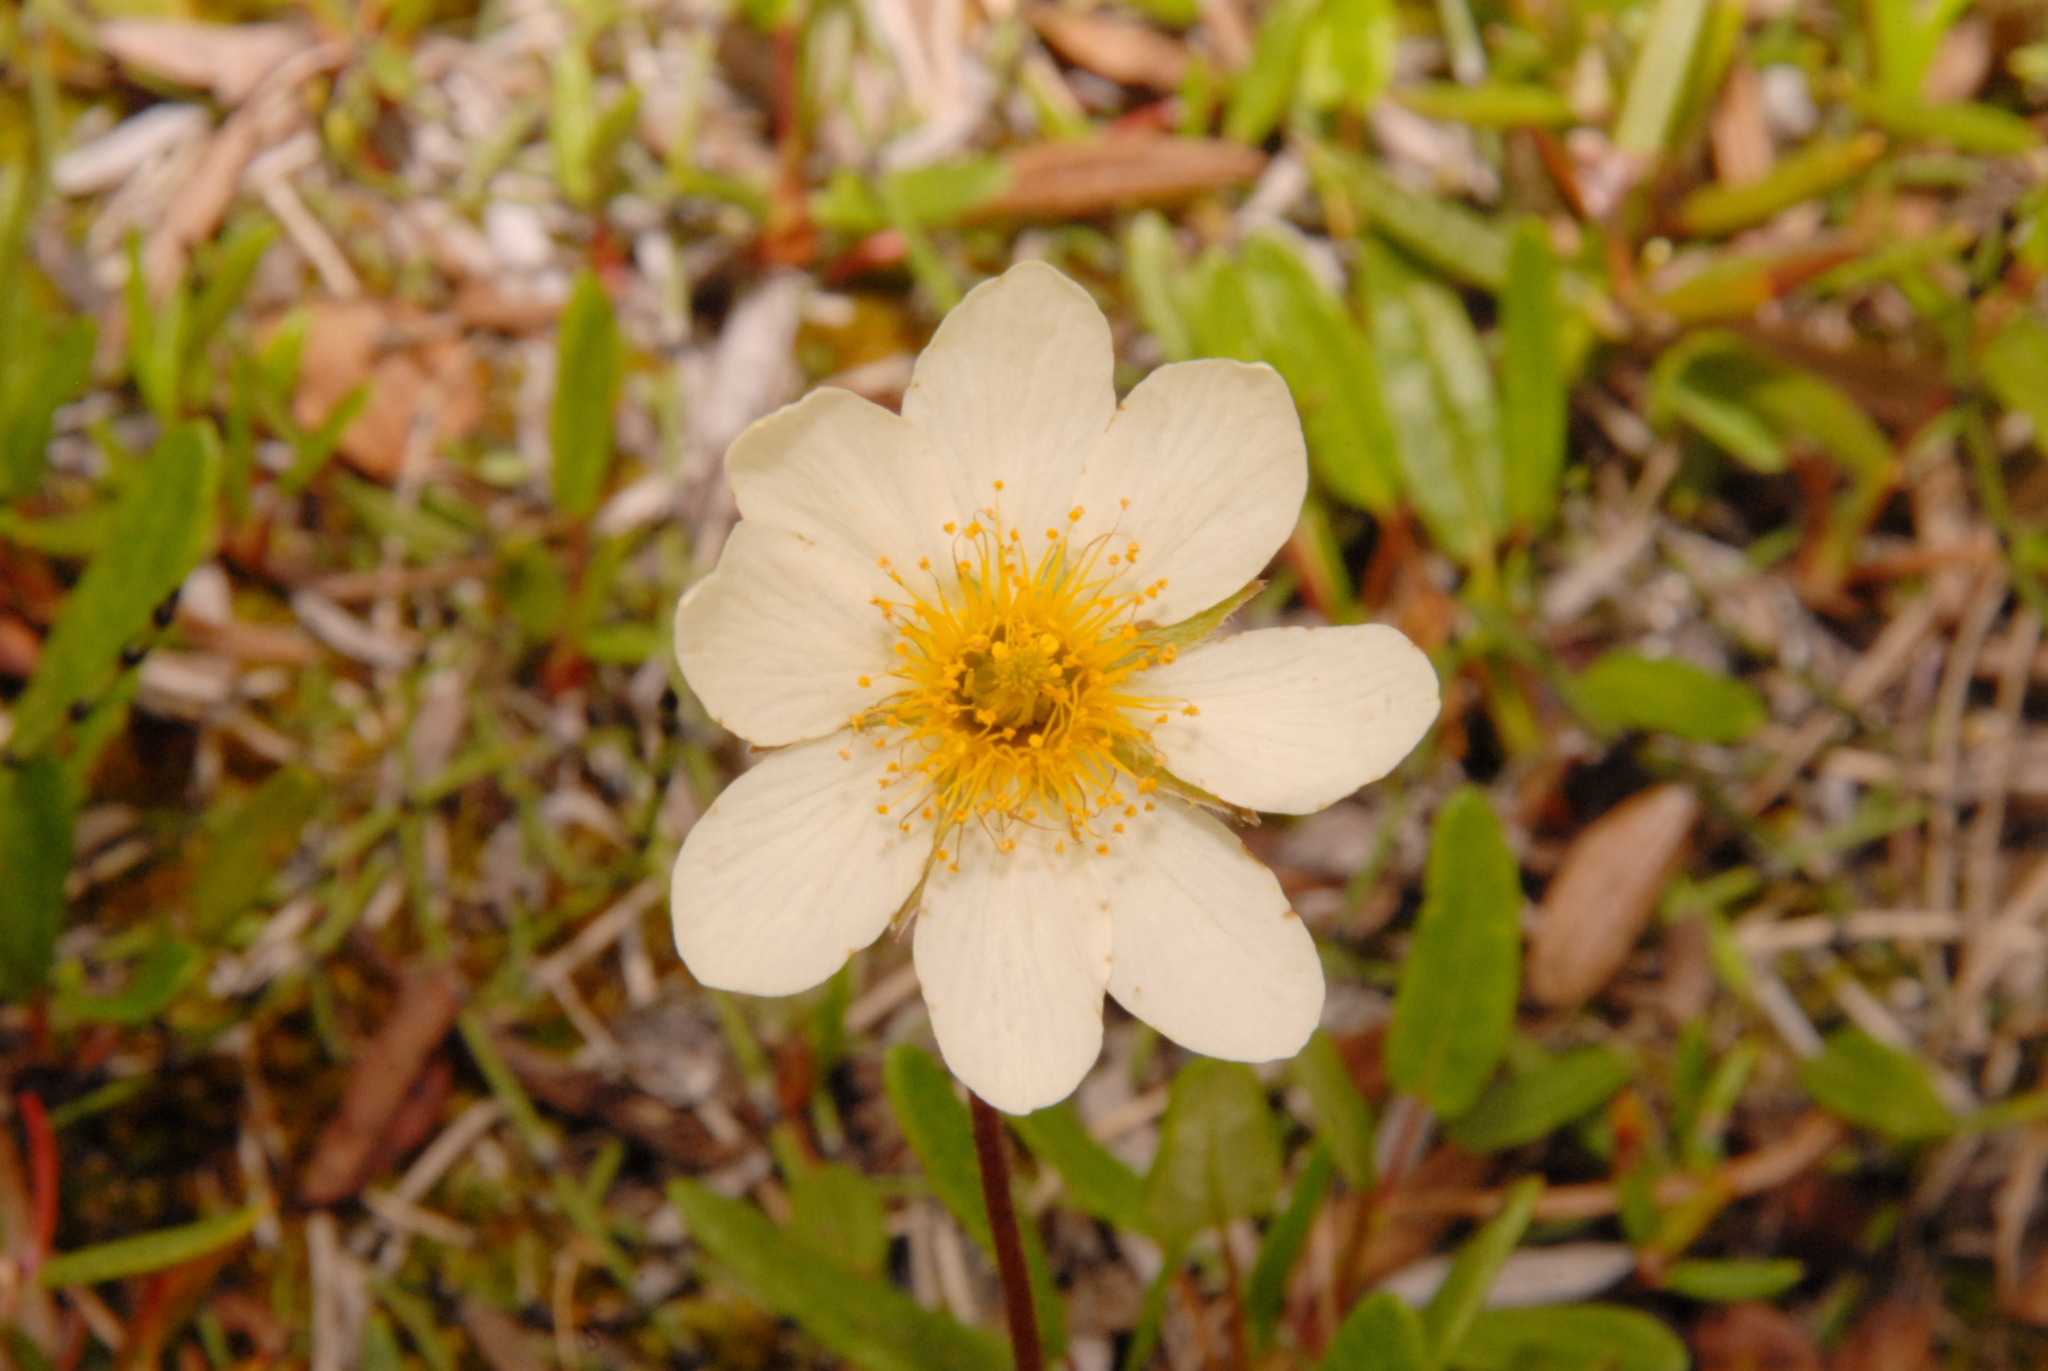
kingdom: Plantae
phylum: Tracheophyta
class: Magnoliopsida
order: Rosales
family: Rosaceae
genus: Dryas
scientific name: Dryas integrifolia
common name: Entire-leaved mountain avens
